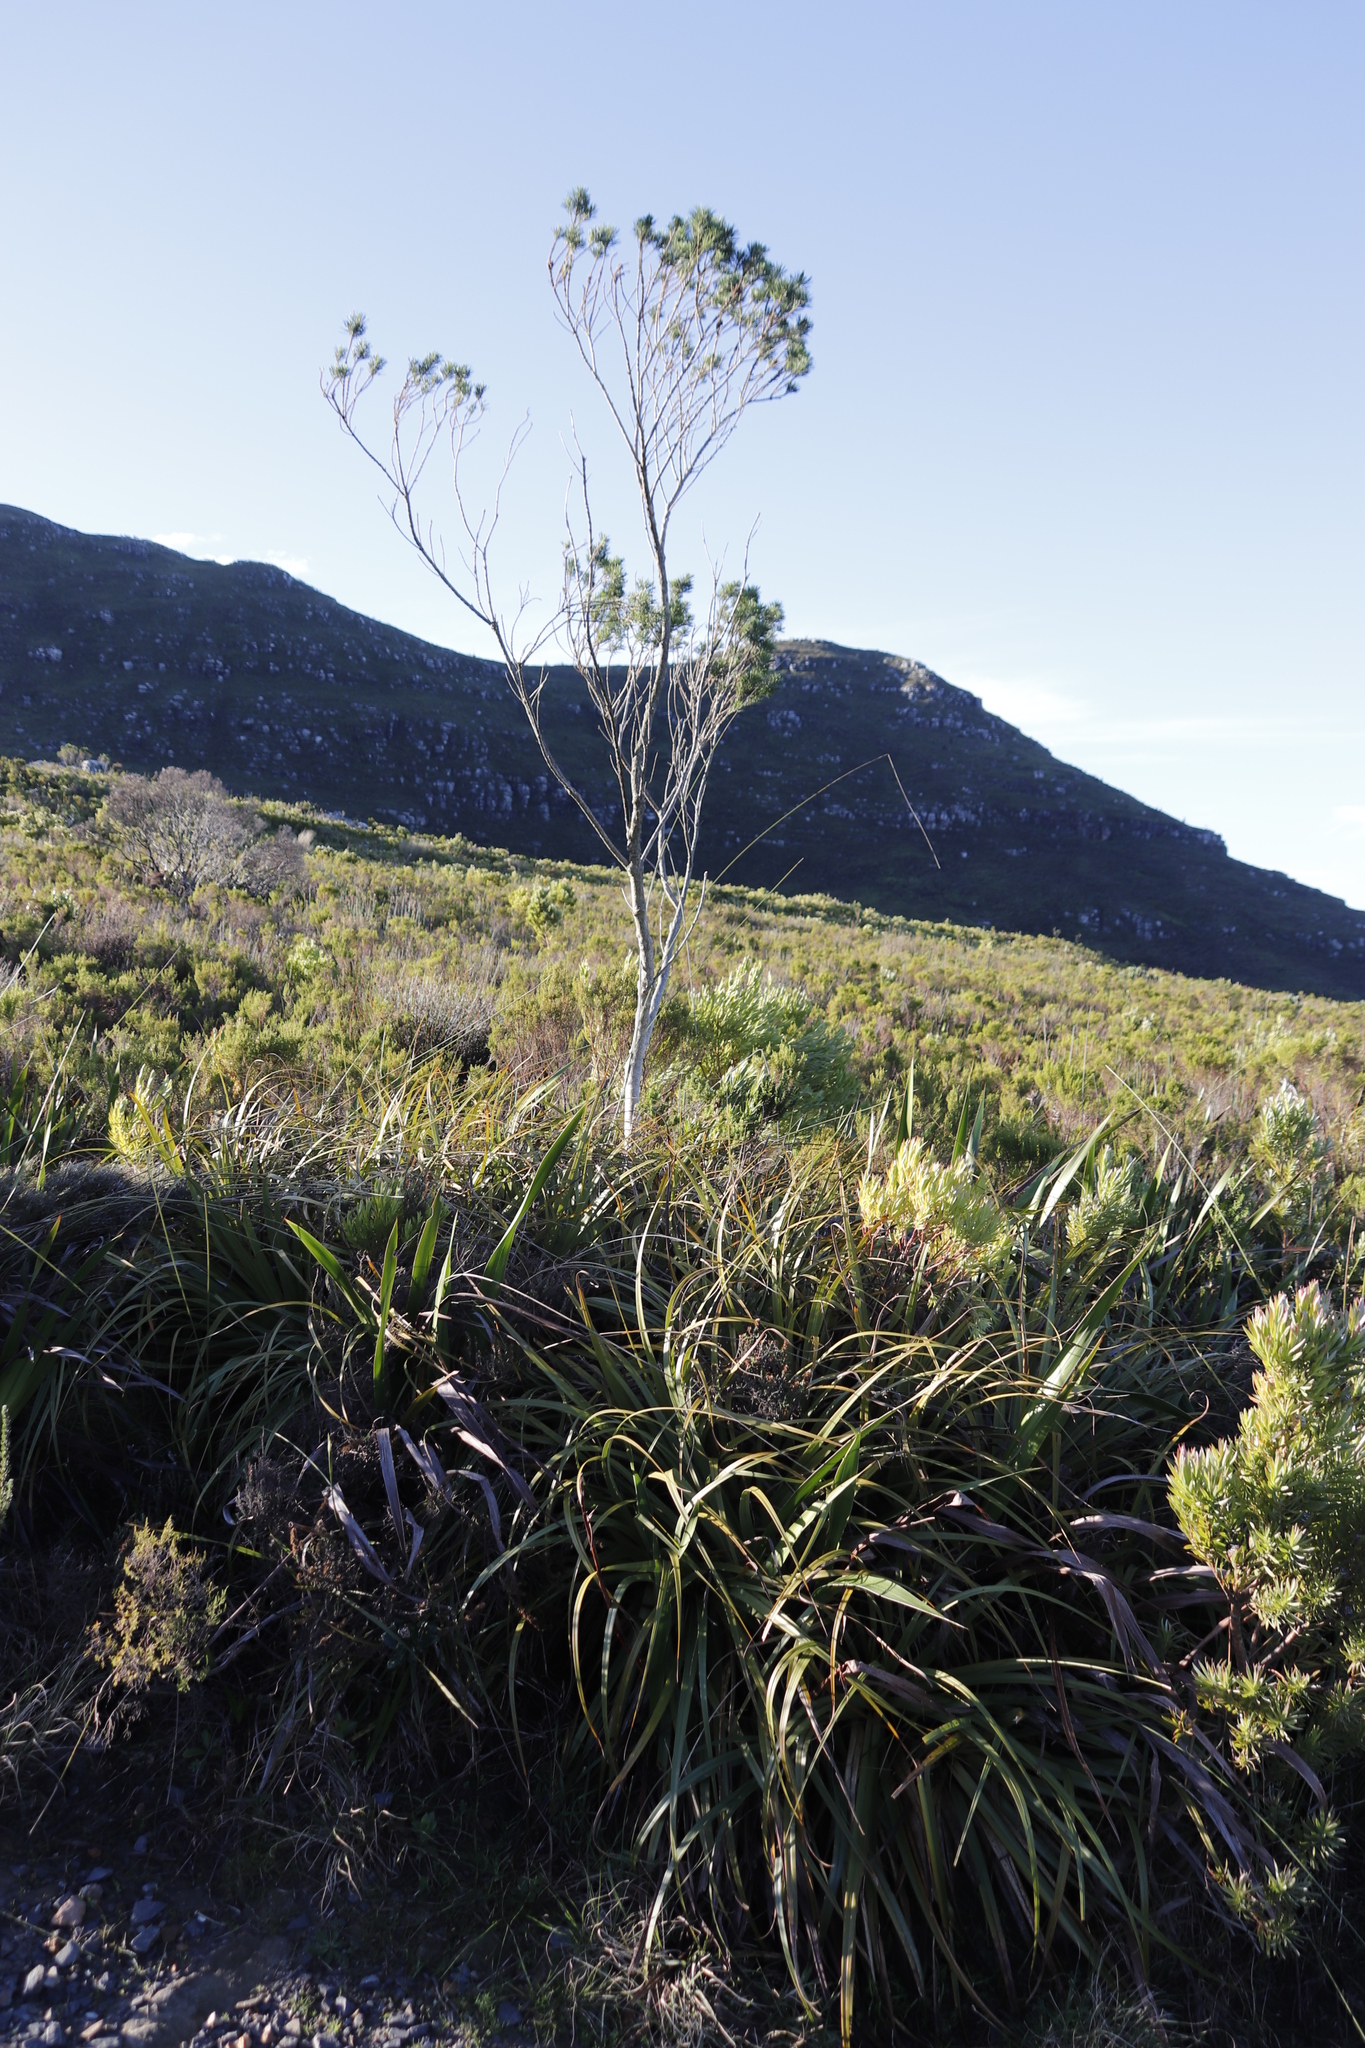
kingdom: Plantae
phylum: Tracheophyta
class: Magnoliopsida
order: Fabales
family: Fabaceae
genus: Psoralea
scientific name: Psoralea pinnata
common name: African scurfpea
